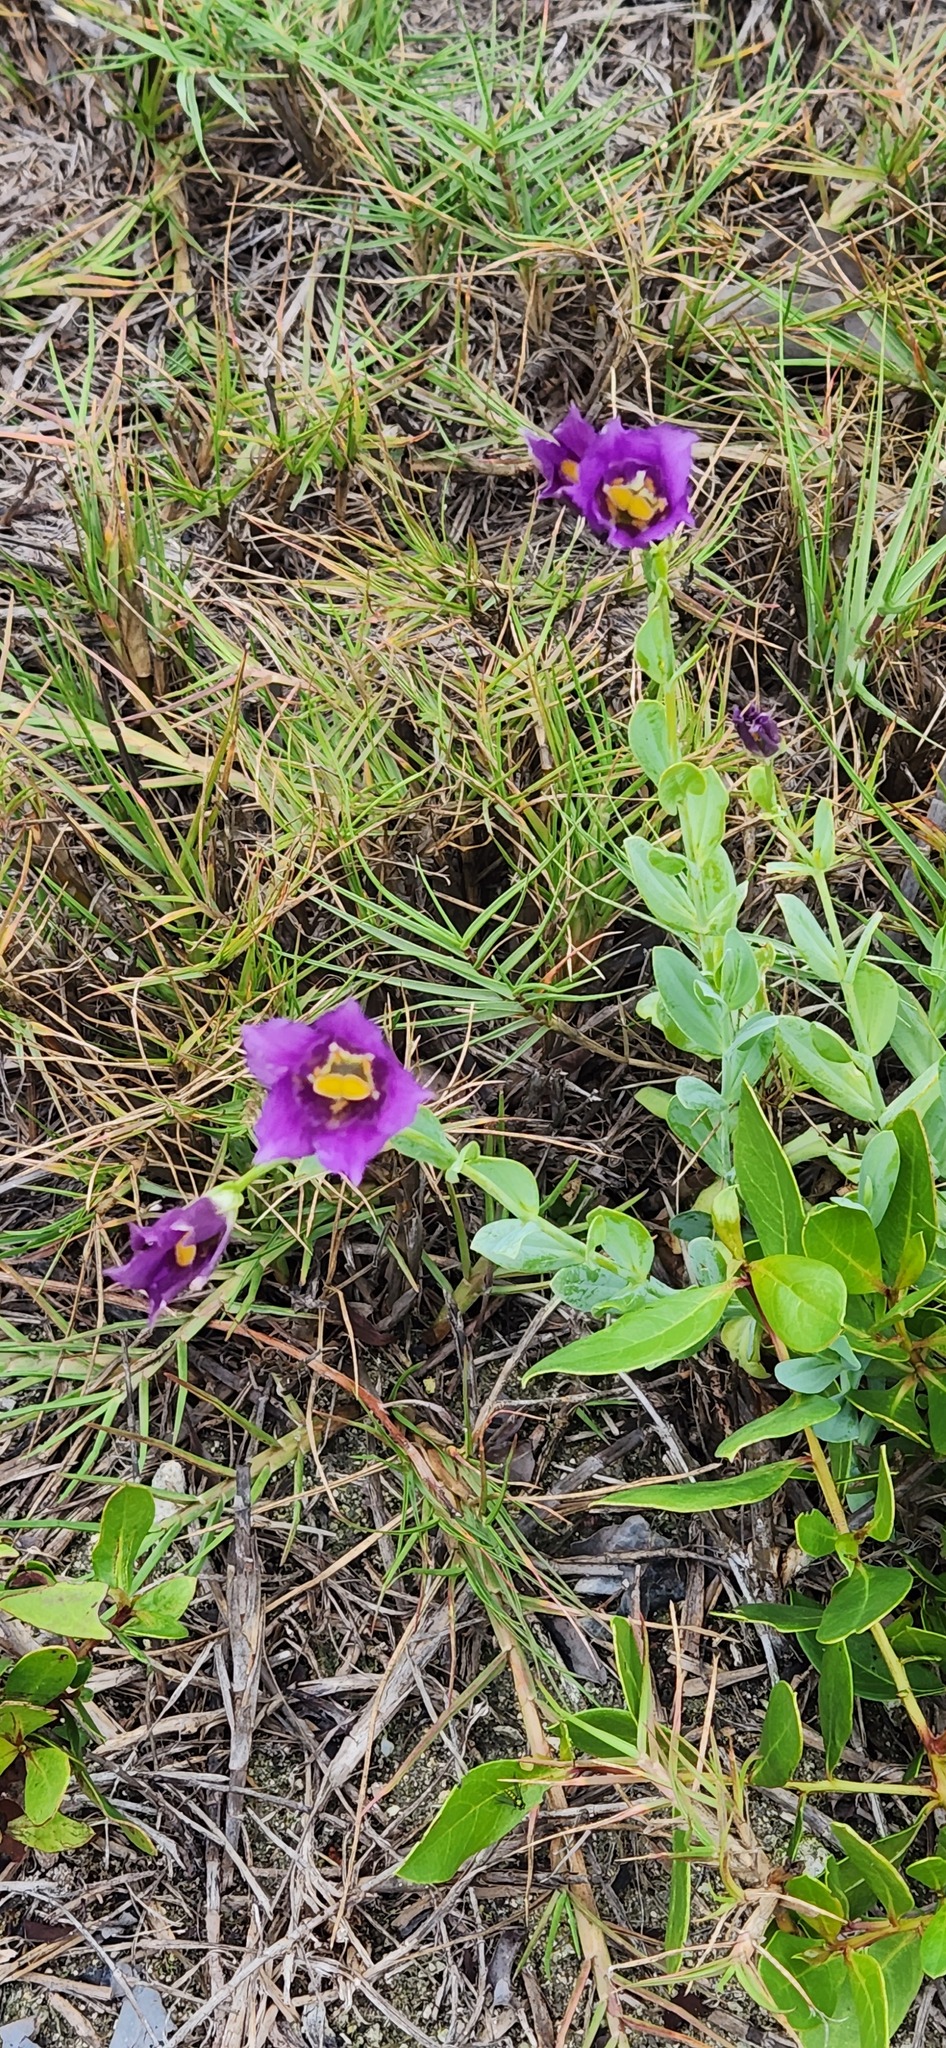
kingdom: Plantae
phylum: Tracheophyta
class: Magnoliopsida
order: Gentianales
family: Gentianaceae
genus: Eustoma
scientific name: Eustoma exaltatum
